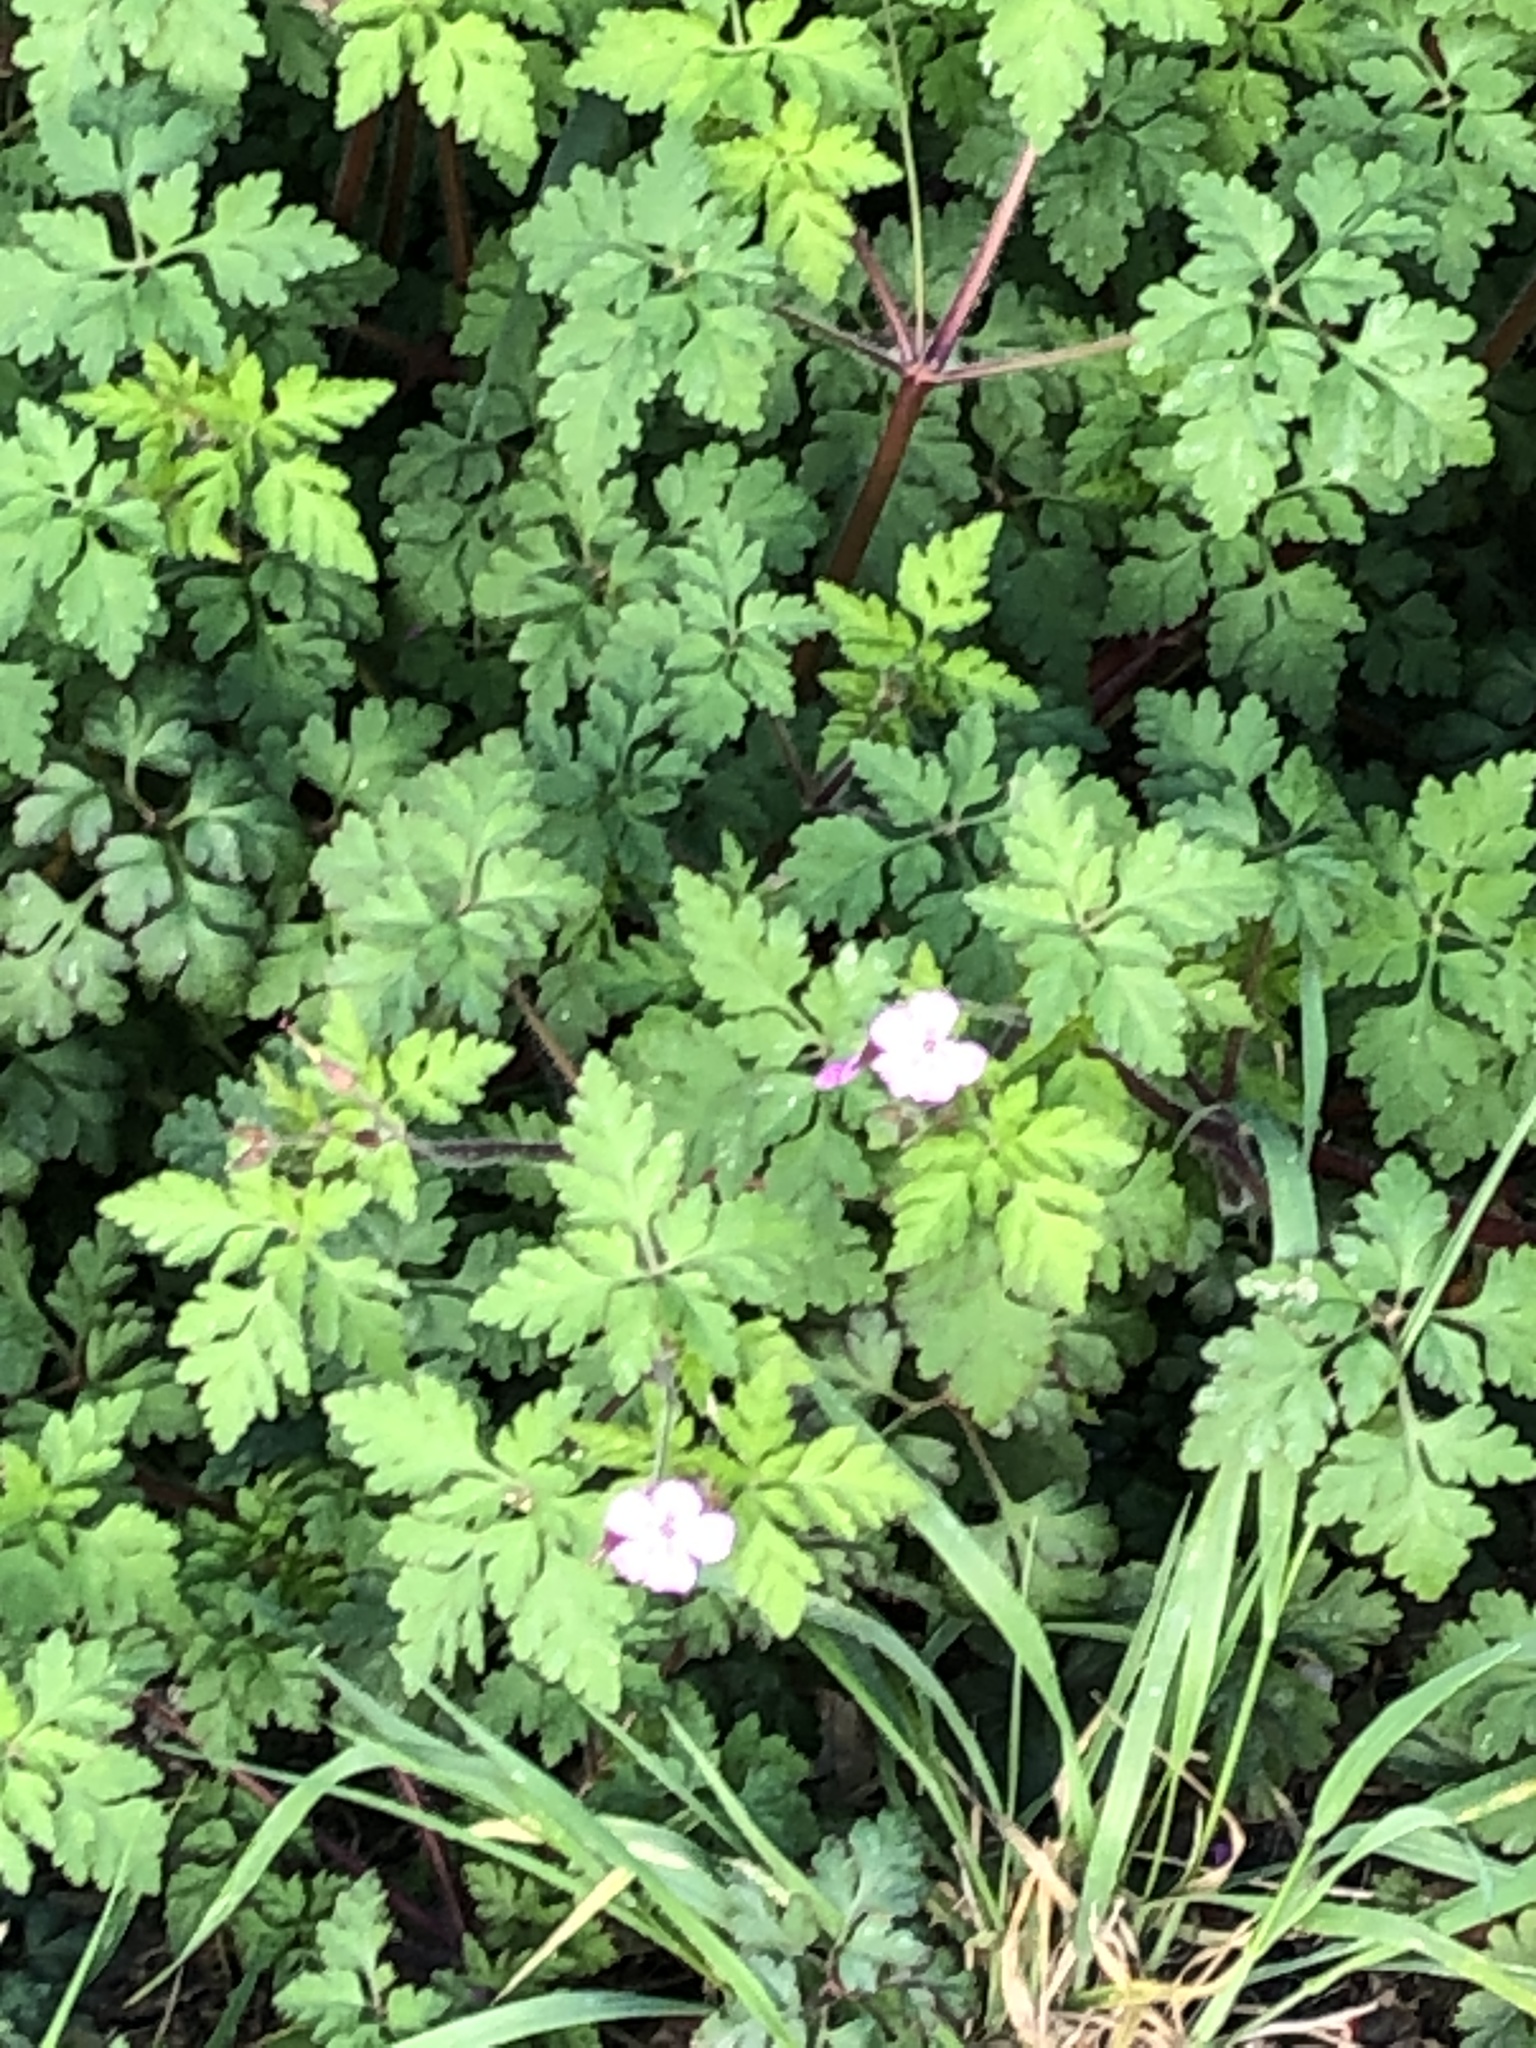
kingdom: Plantae
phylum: Tracheophyta
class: Magnoliopsida
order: Geraniales
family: Geraniaceae
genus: Geranium
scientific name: Geranium robertianum
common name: Herb-robert
